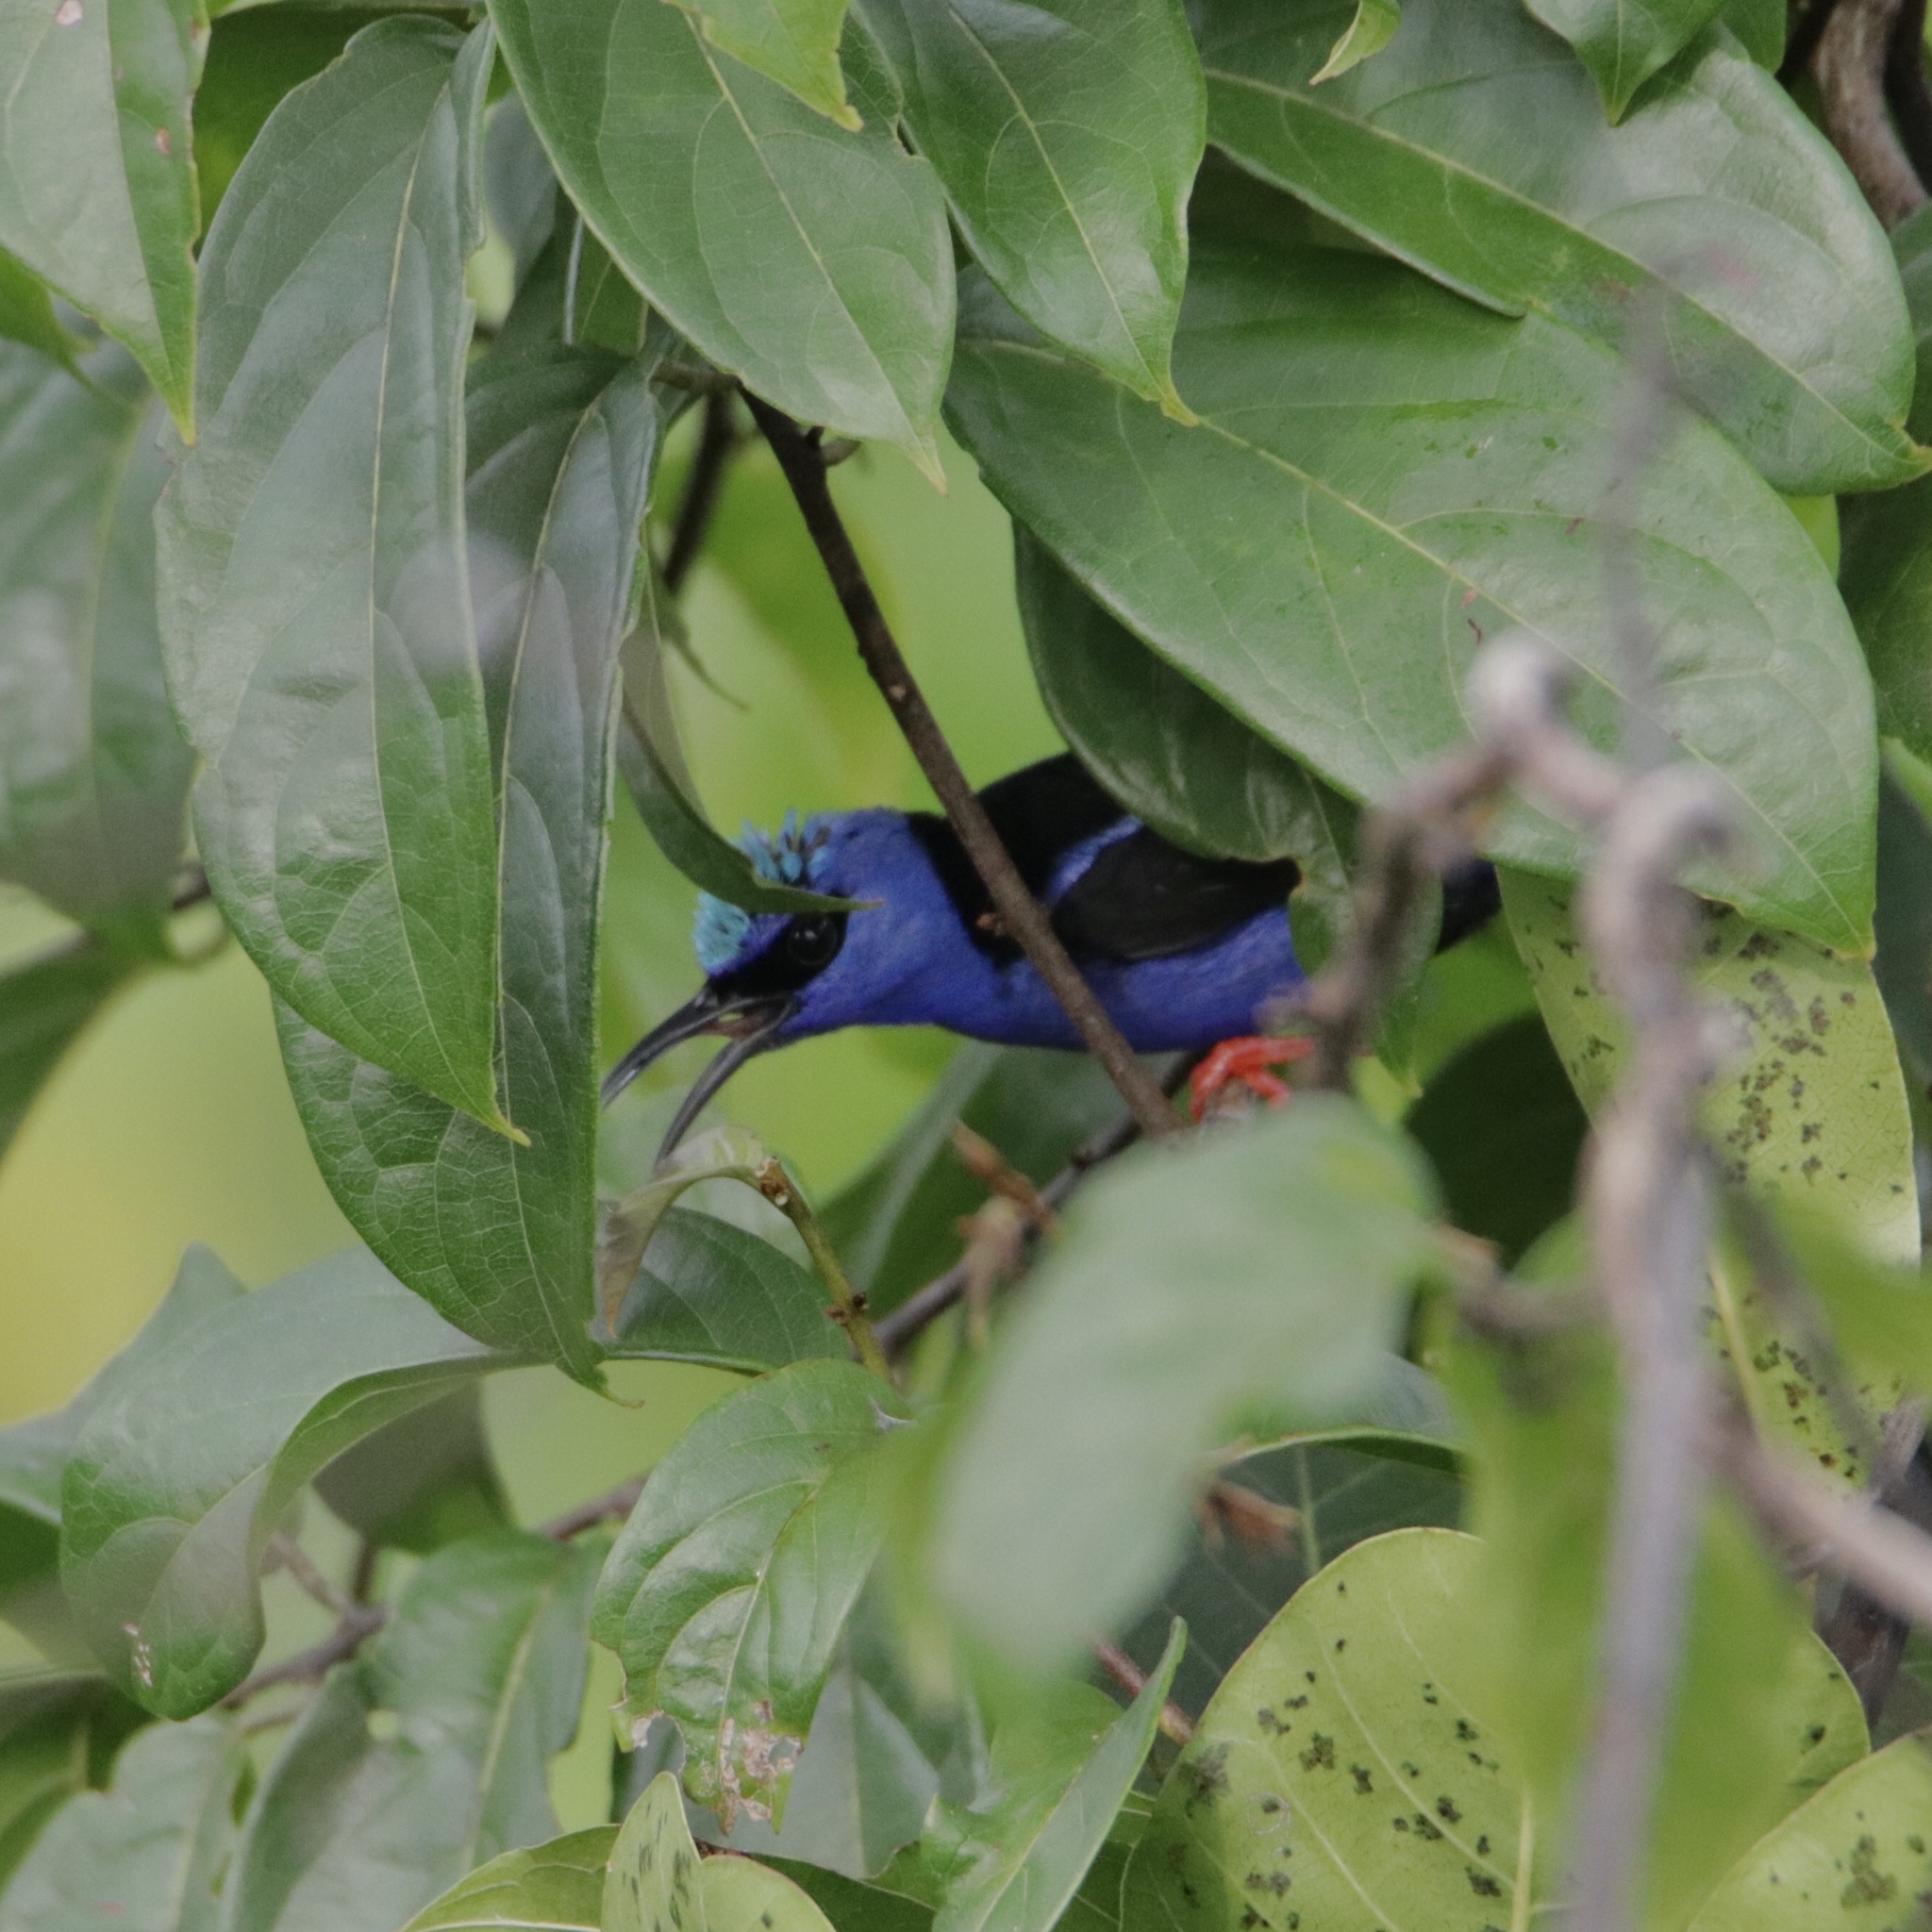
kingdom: Animalia
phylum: Chordata
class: Aves
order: Passeriformes
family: Thraupidae
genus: Cyanerpes
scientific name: Cyanerpes cyaneus
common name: Red-legged honeycreeper
